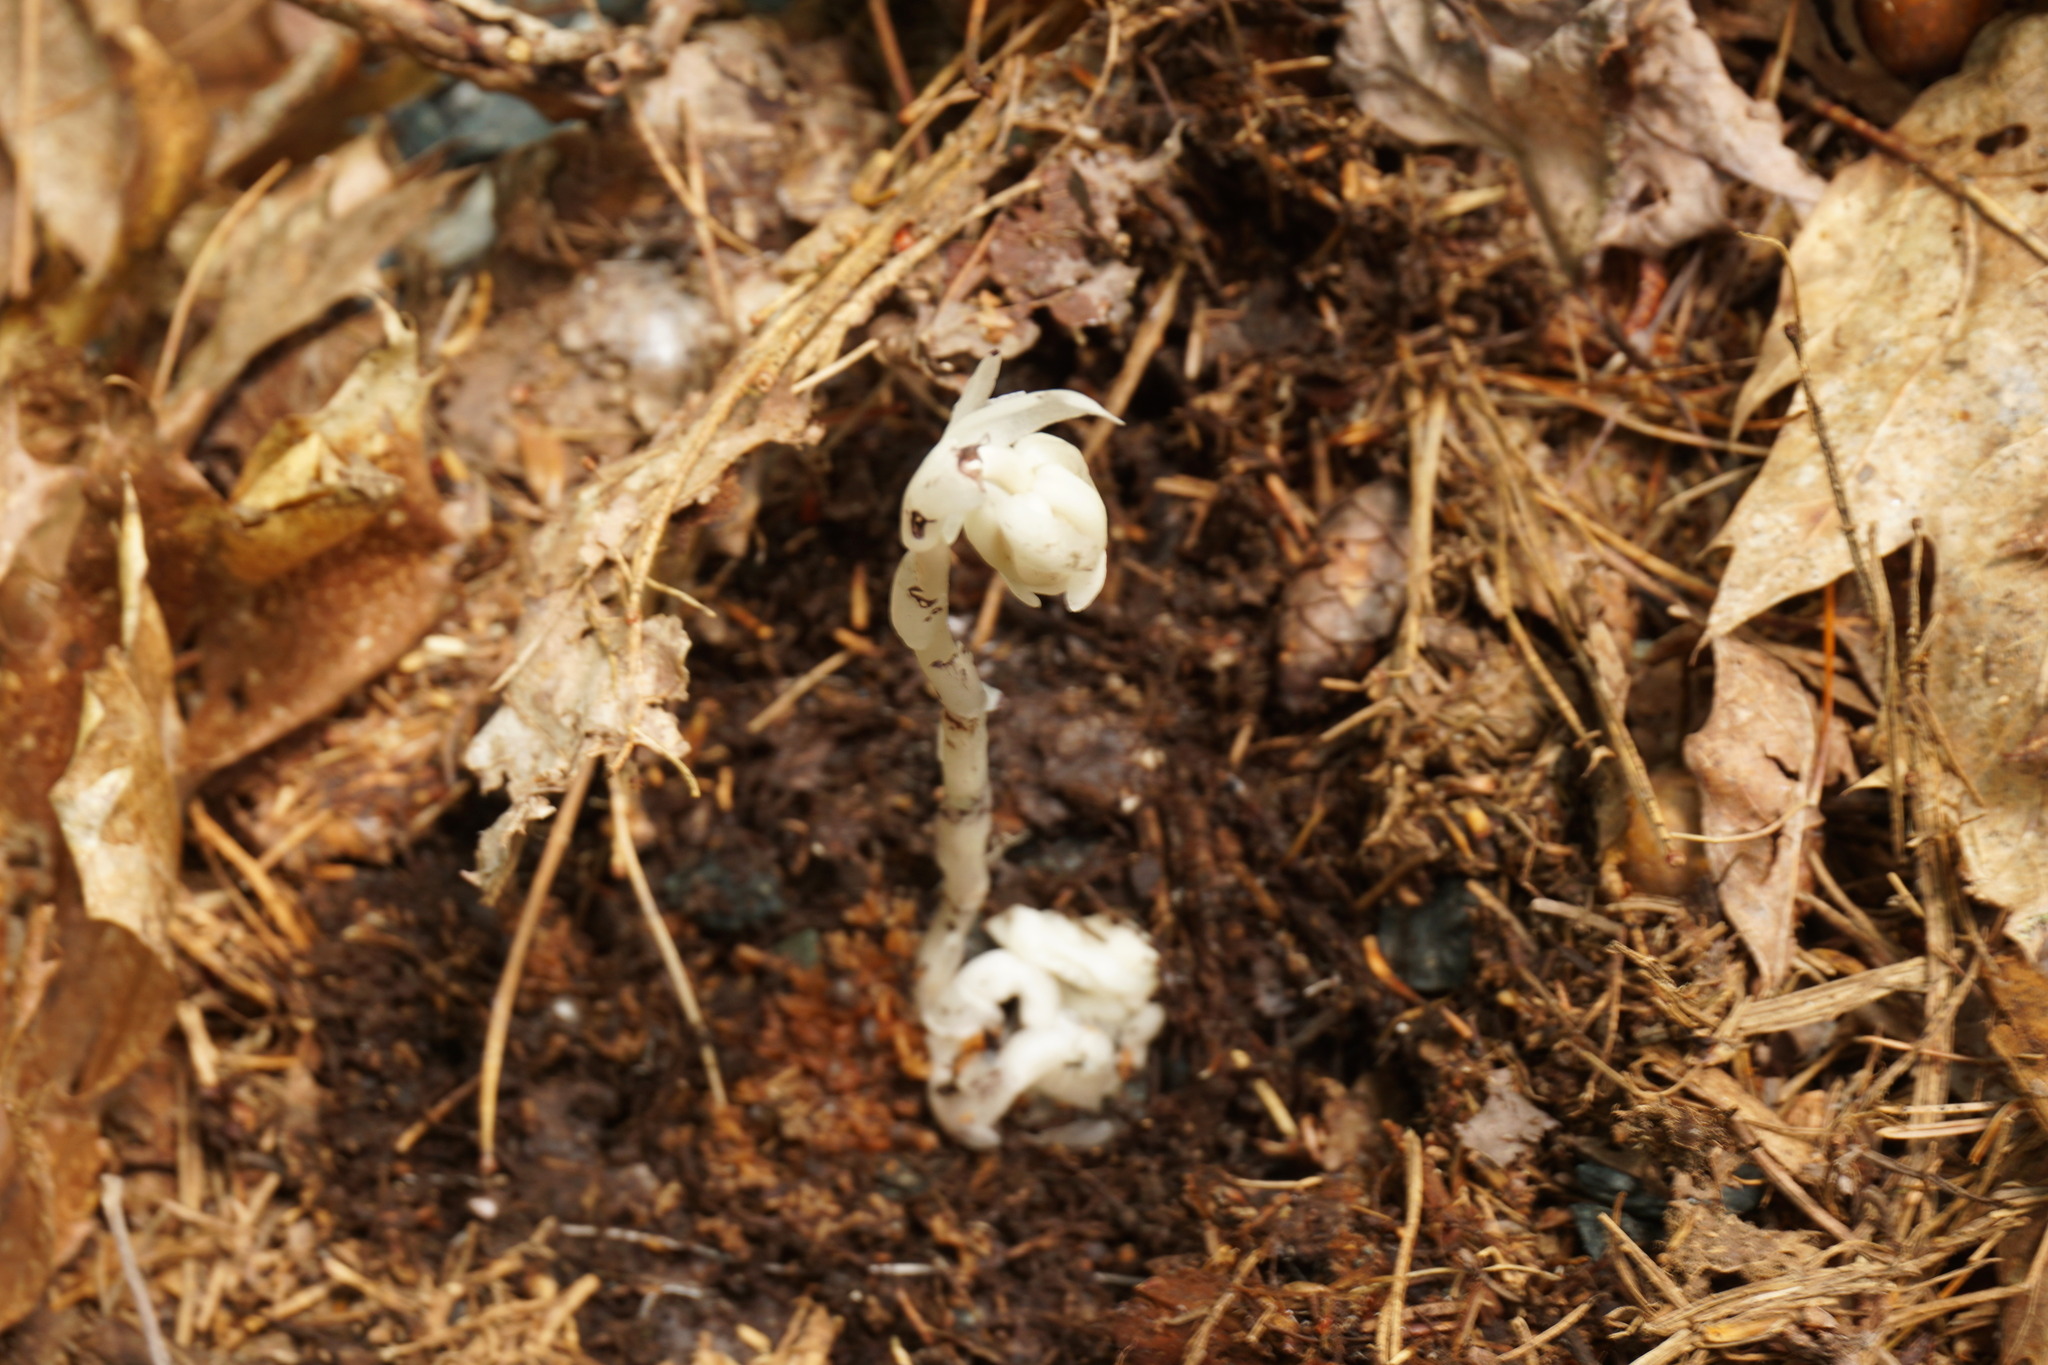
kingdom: Plantae
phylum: Tracheophyta
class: Magnoliopsida
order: Ericales
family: Ericaceae
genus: Monotropa
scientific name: Monotropa uniflora
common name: Convulsion root
